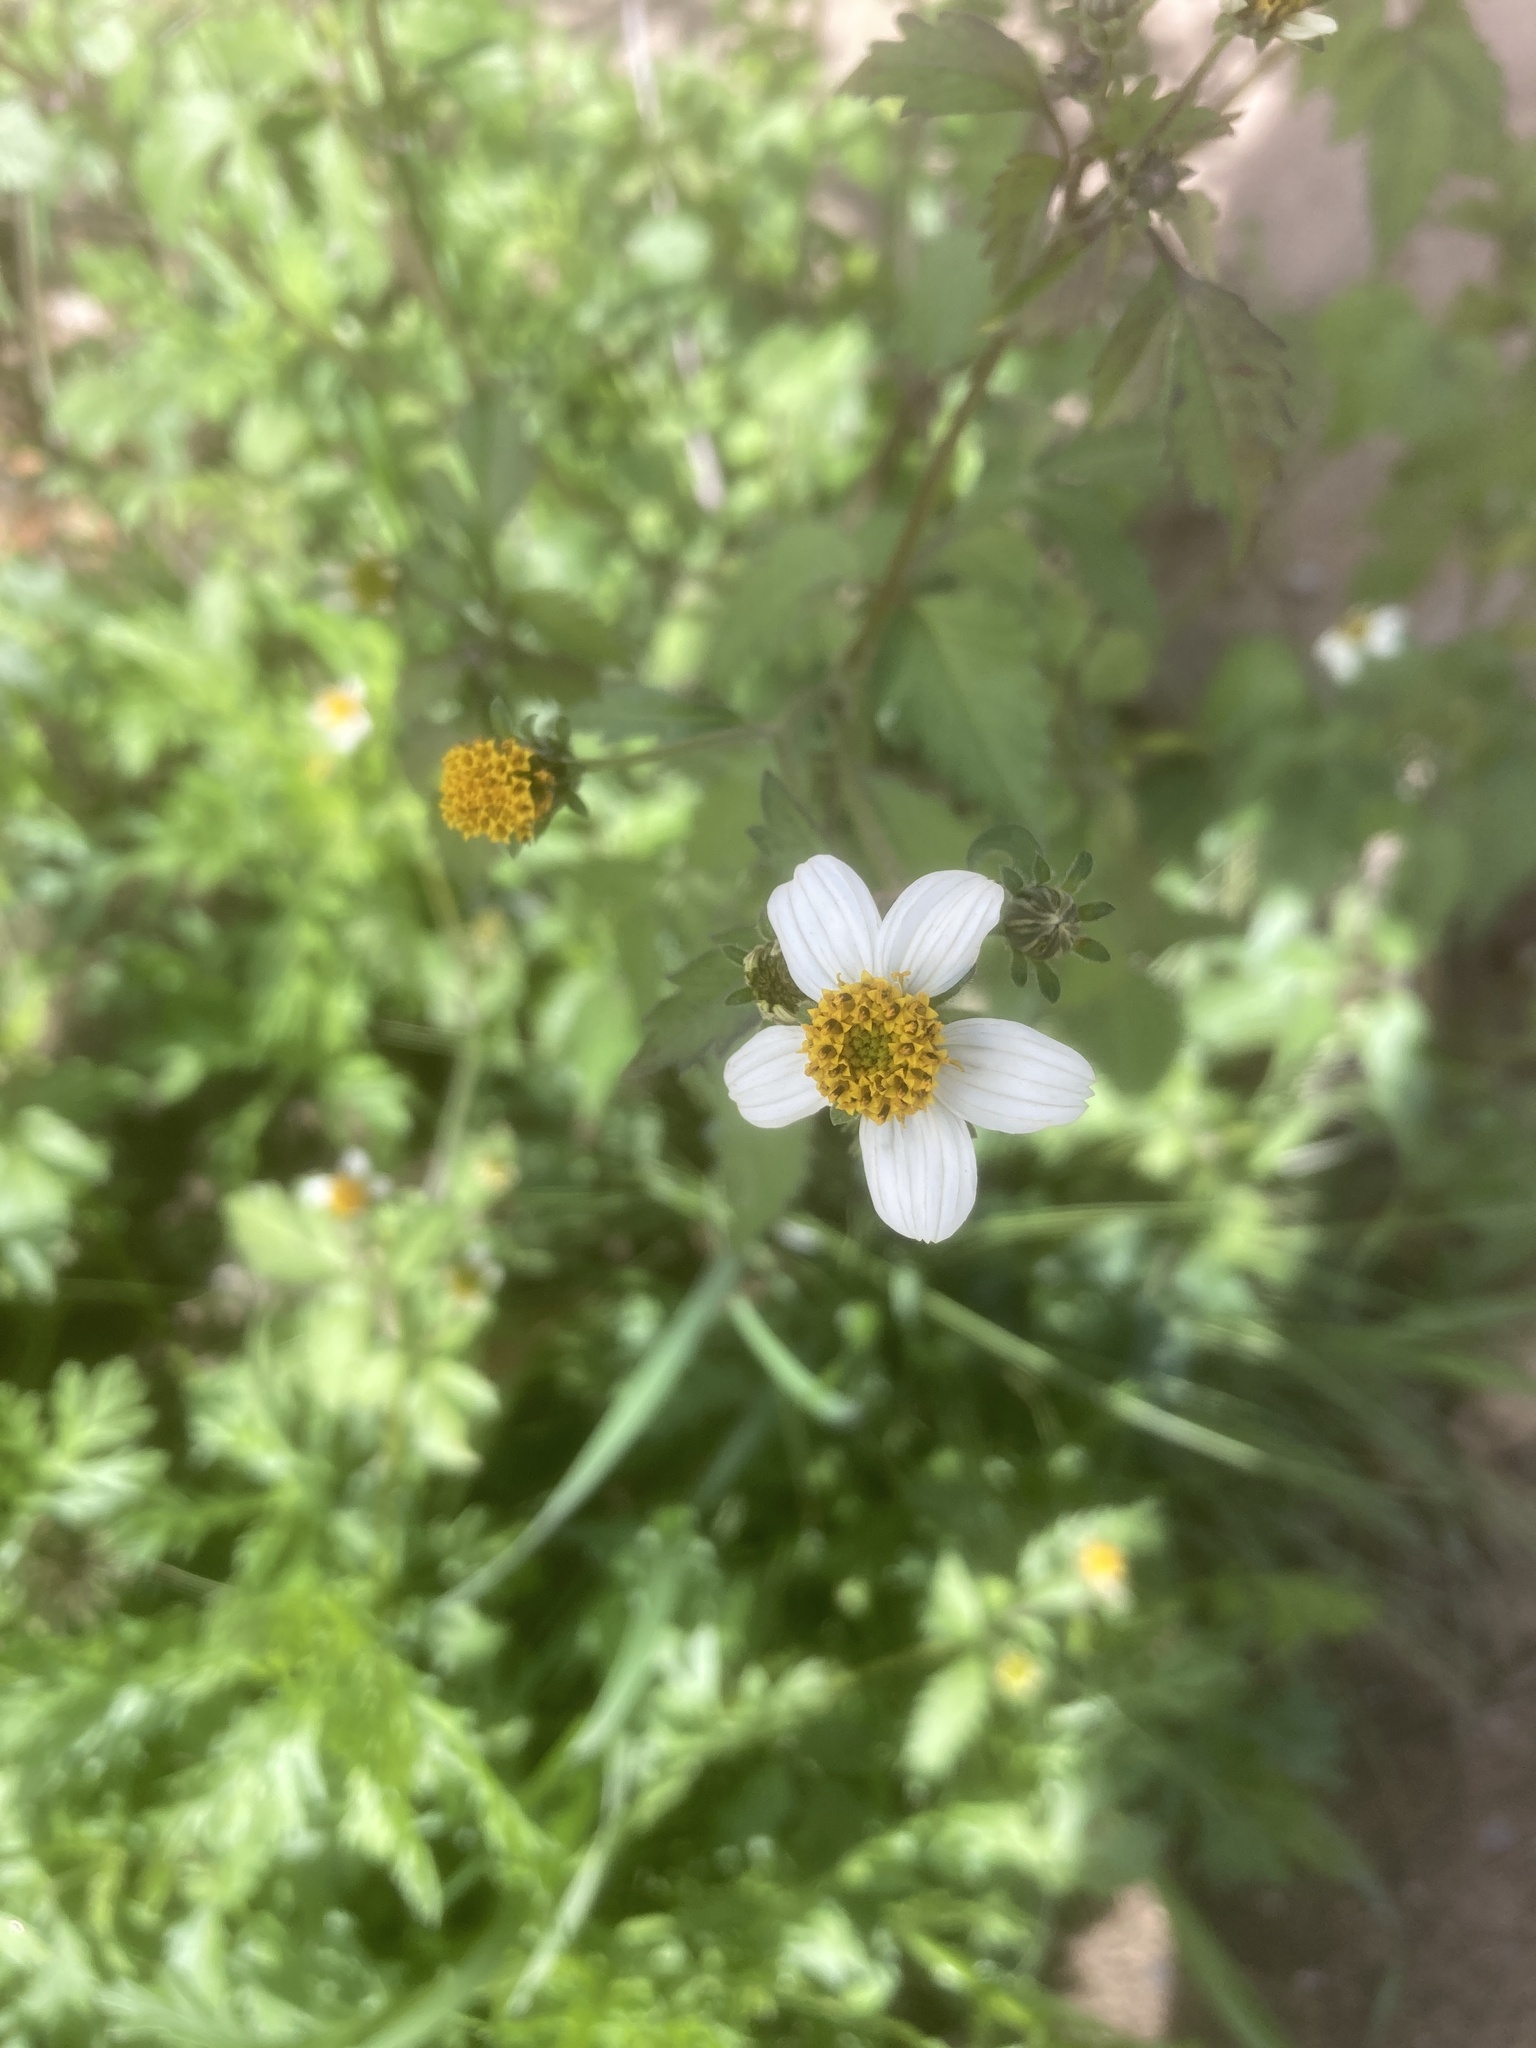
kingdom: Plantae
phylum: Tracheophyta
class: Magnoliopsida
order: Asterales
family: Asteraceae
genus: Bidens
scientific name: Bidens pilosa
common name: Black-jack
